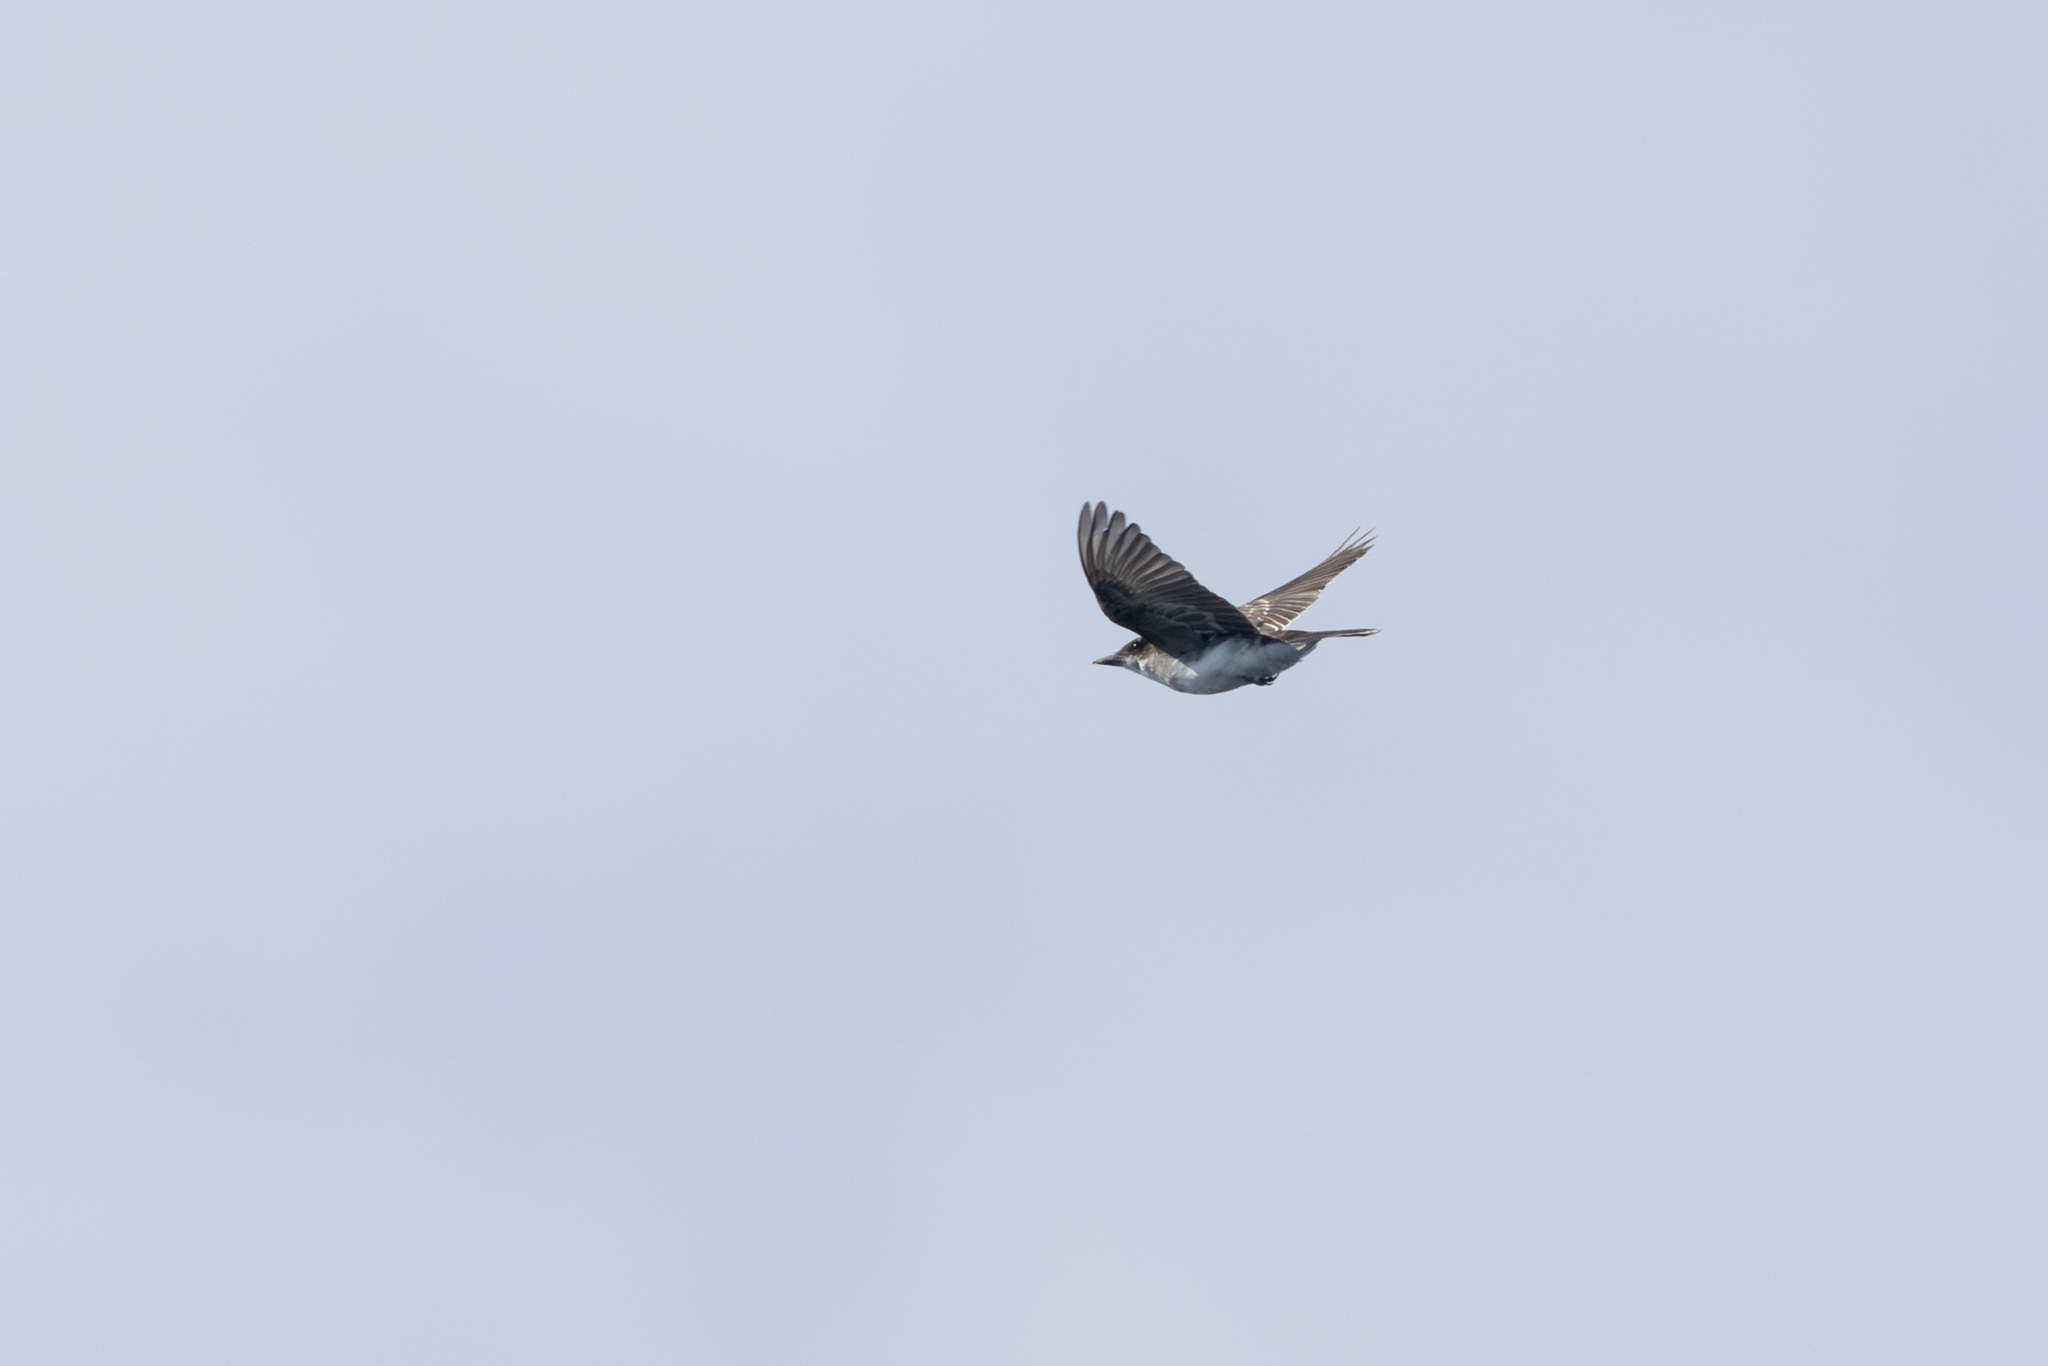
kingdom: Animalia
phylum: Chordata
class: Aves
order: Passeriformes
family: Tyrannidae
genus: Tyrannus
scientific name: Tyrannus tyrannus
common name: Eastern kingbird
